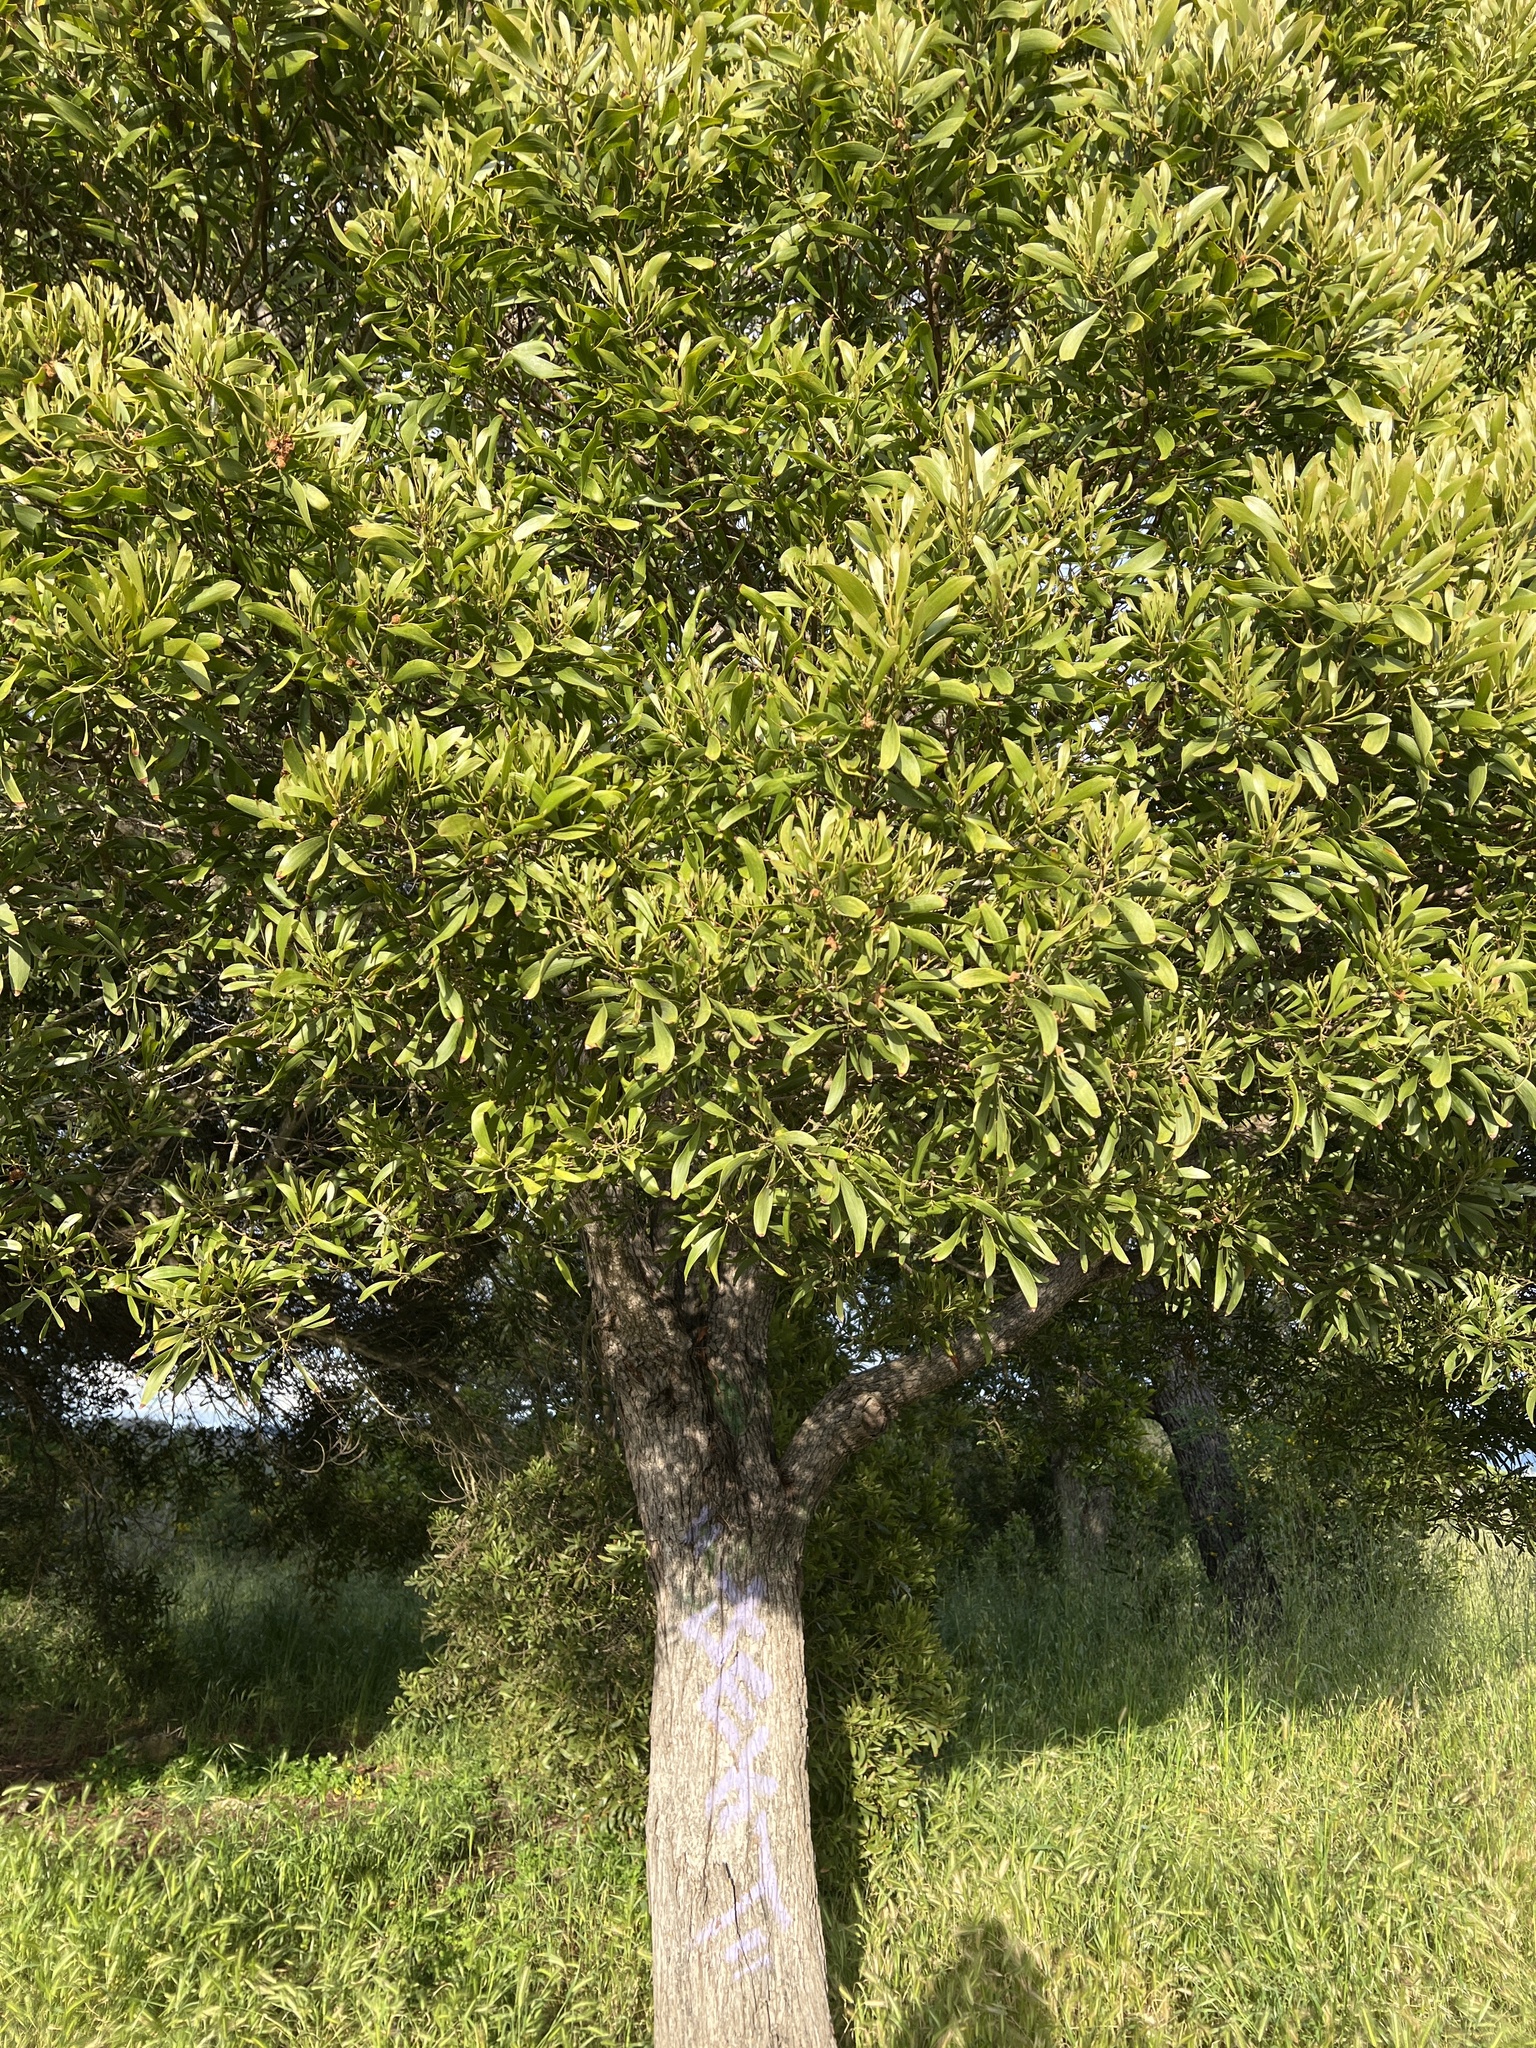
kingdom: Plantae
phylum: Tracheophyta
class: Magnoliopsida
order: Fabales
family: Fabaceae
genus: Acacia
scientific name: Acacia melanoxylon
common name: Blackwood
